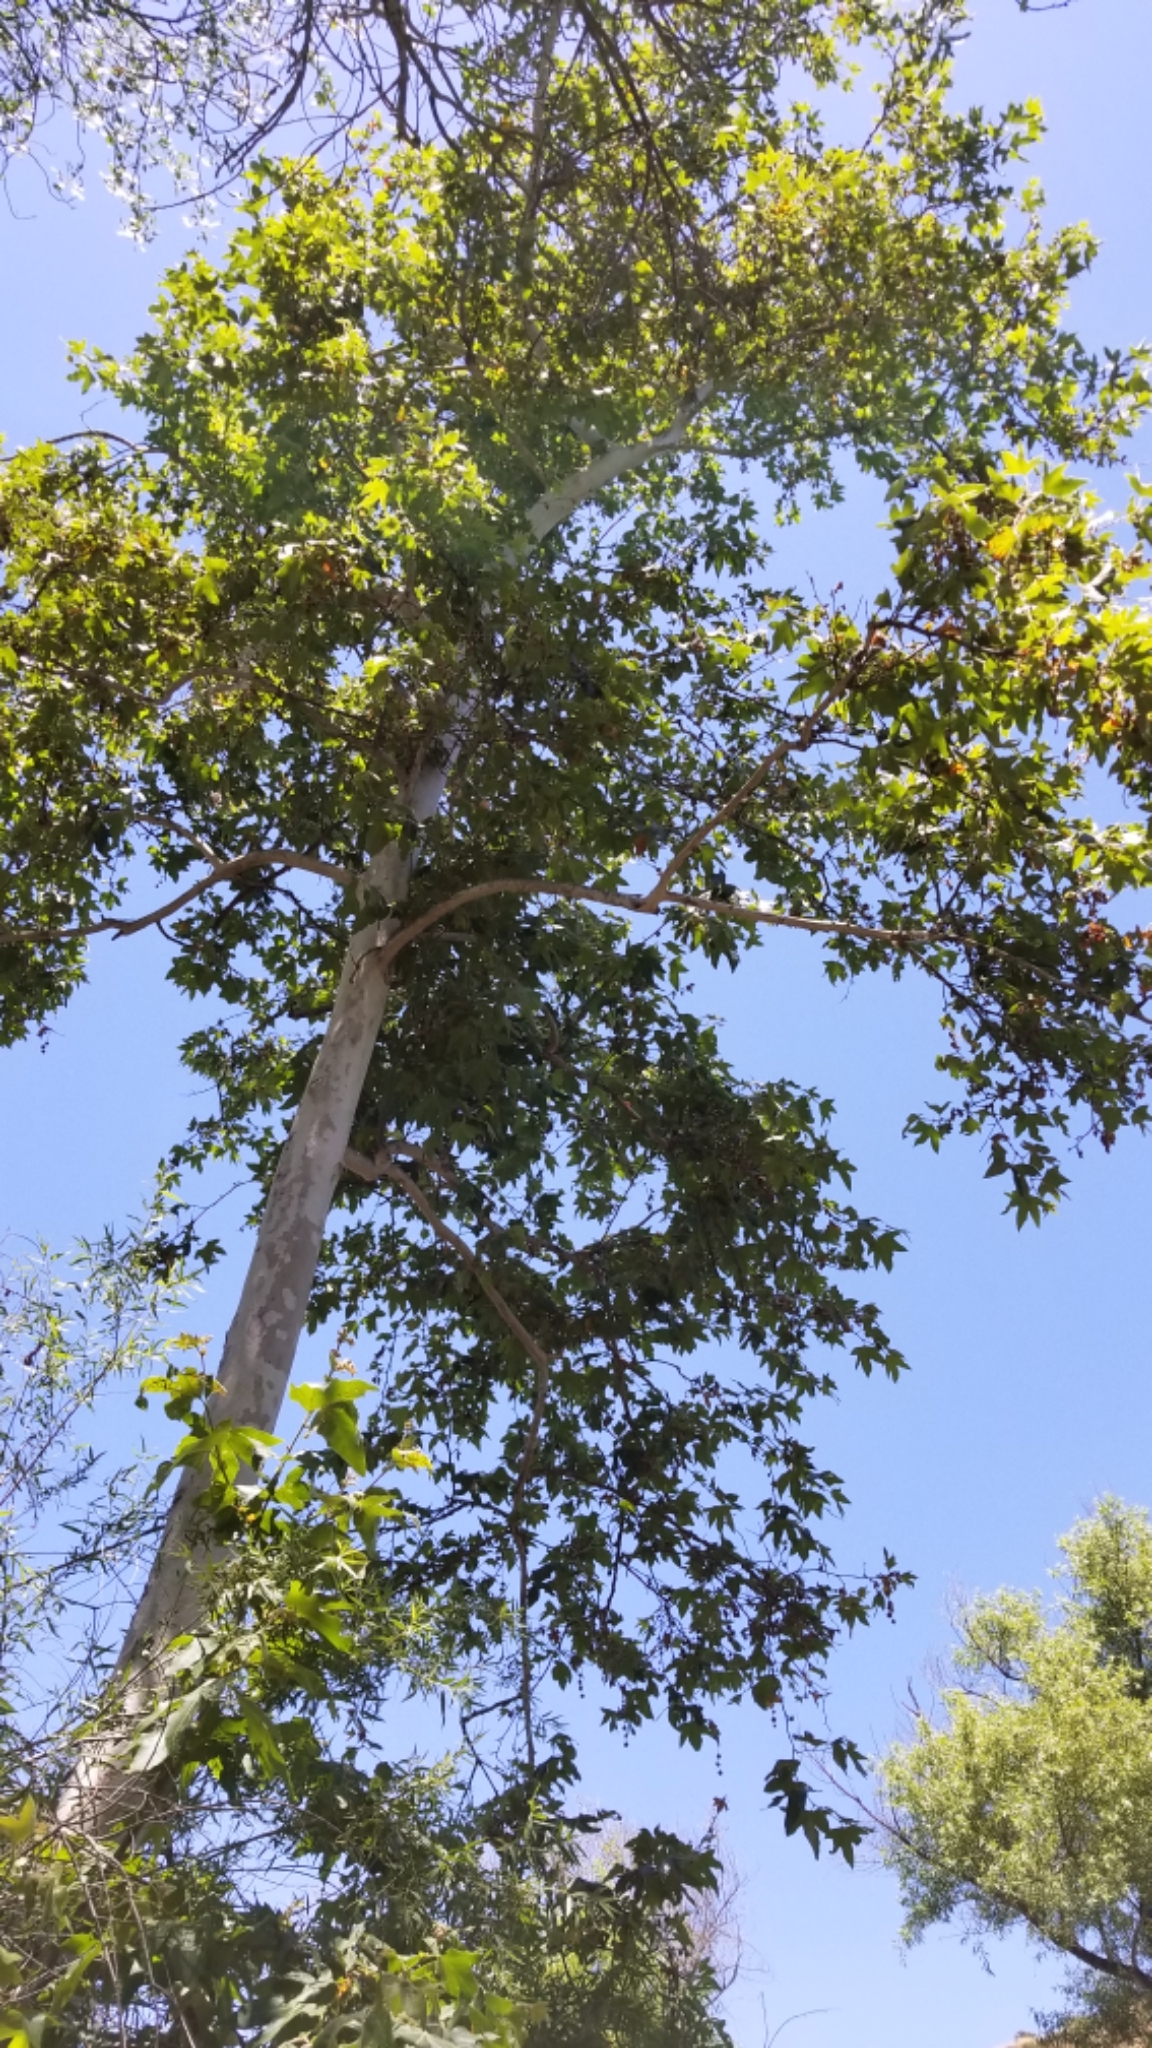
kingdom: Plantae
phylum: Tracheophyta
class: Magnoliopsida
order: Proteales
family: Platanaceae
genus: Platanus
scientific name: Platanus racemosa
